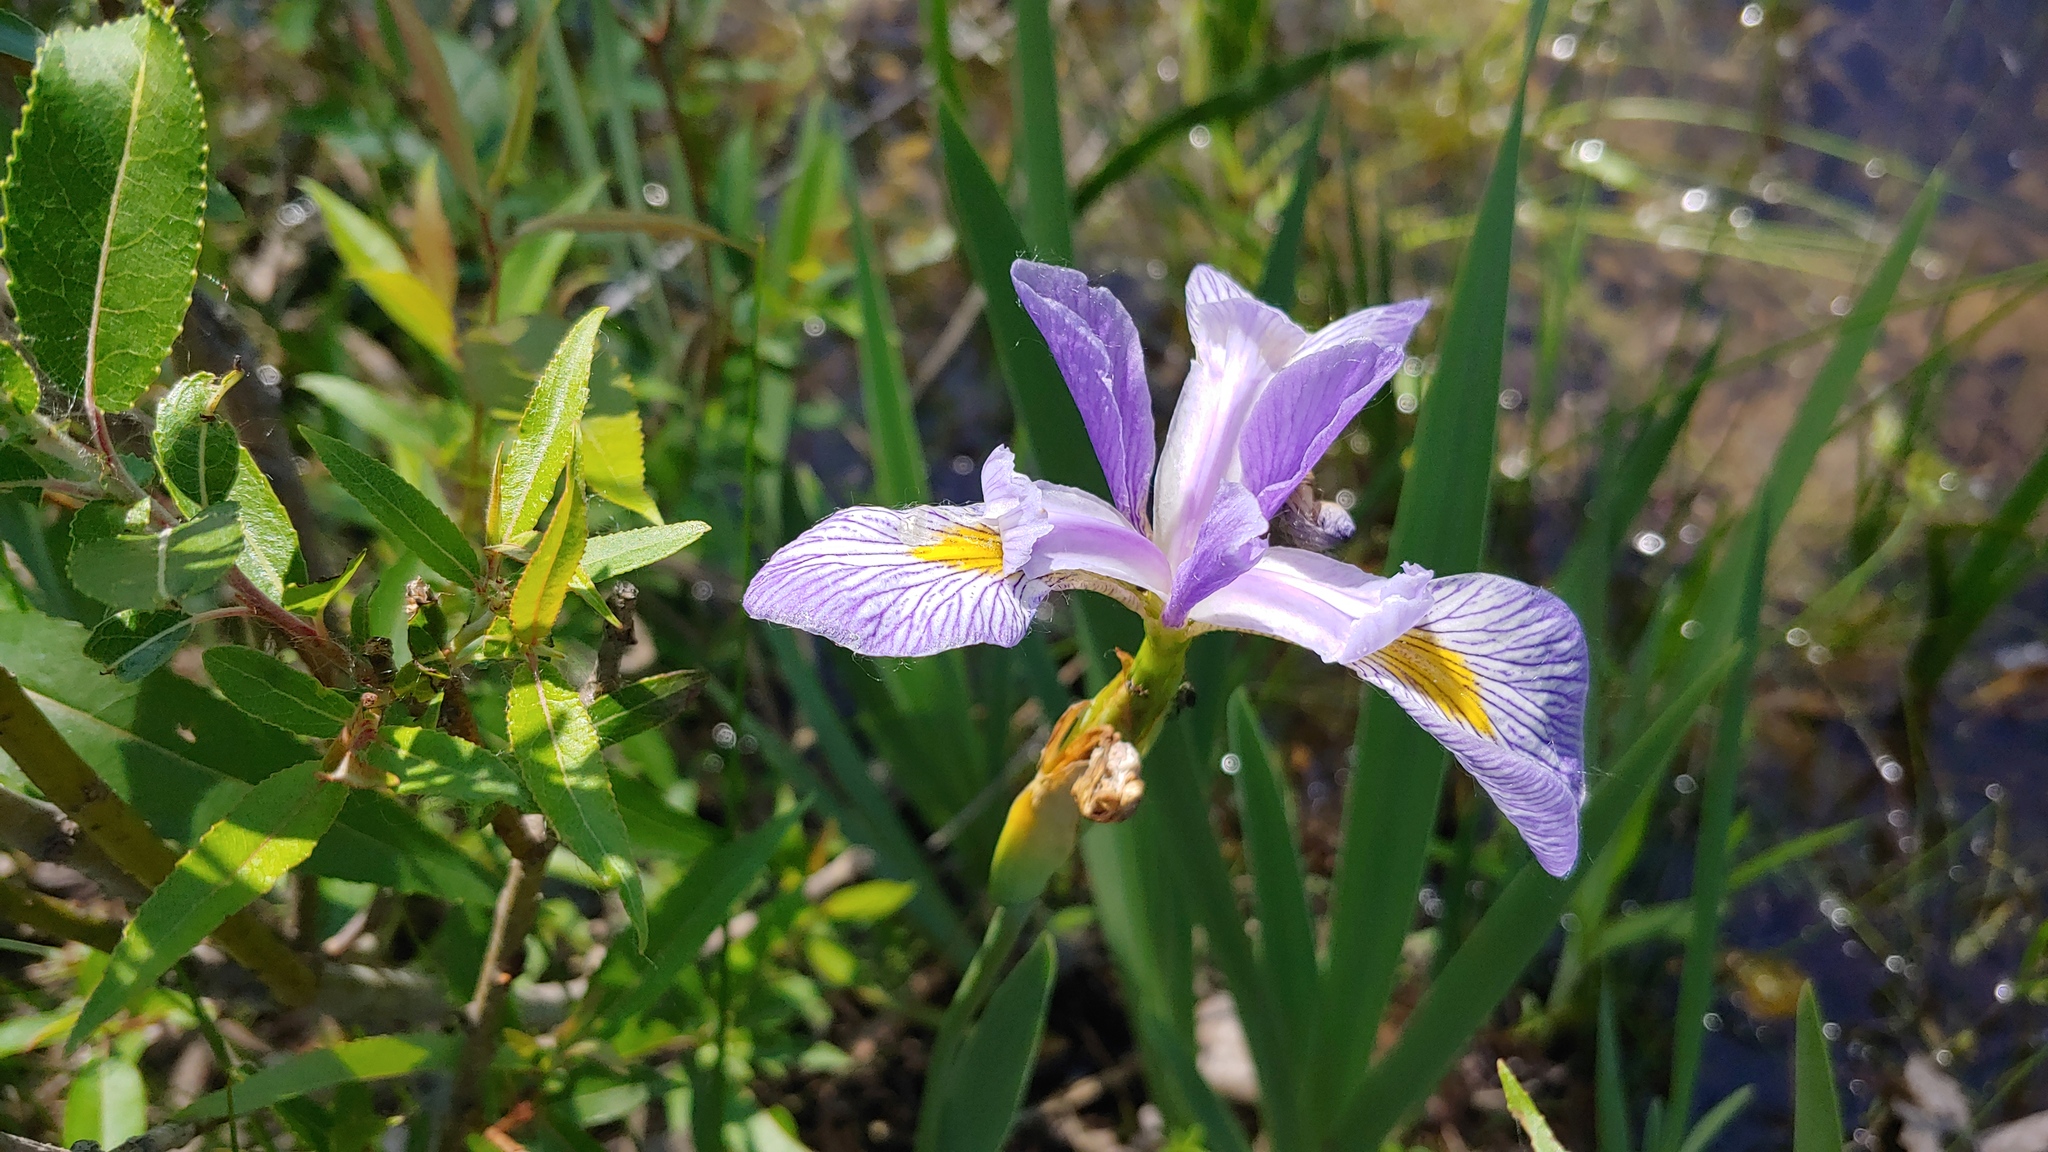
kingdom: Plantae
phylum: Tracheophyta
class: Liliopsida
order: Asparagales
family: Iridaceae
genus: Iris
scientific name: Iris virginica
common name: Southern blue flag
